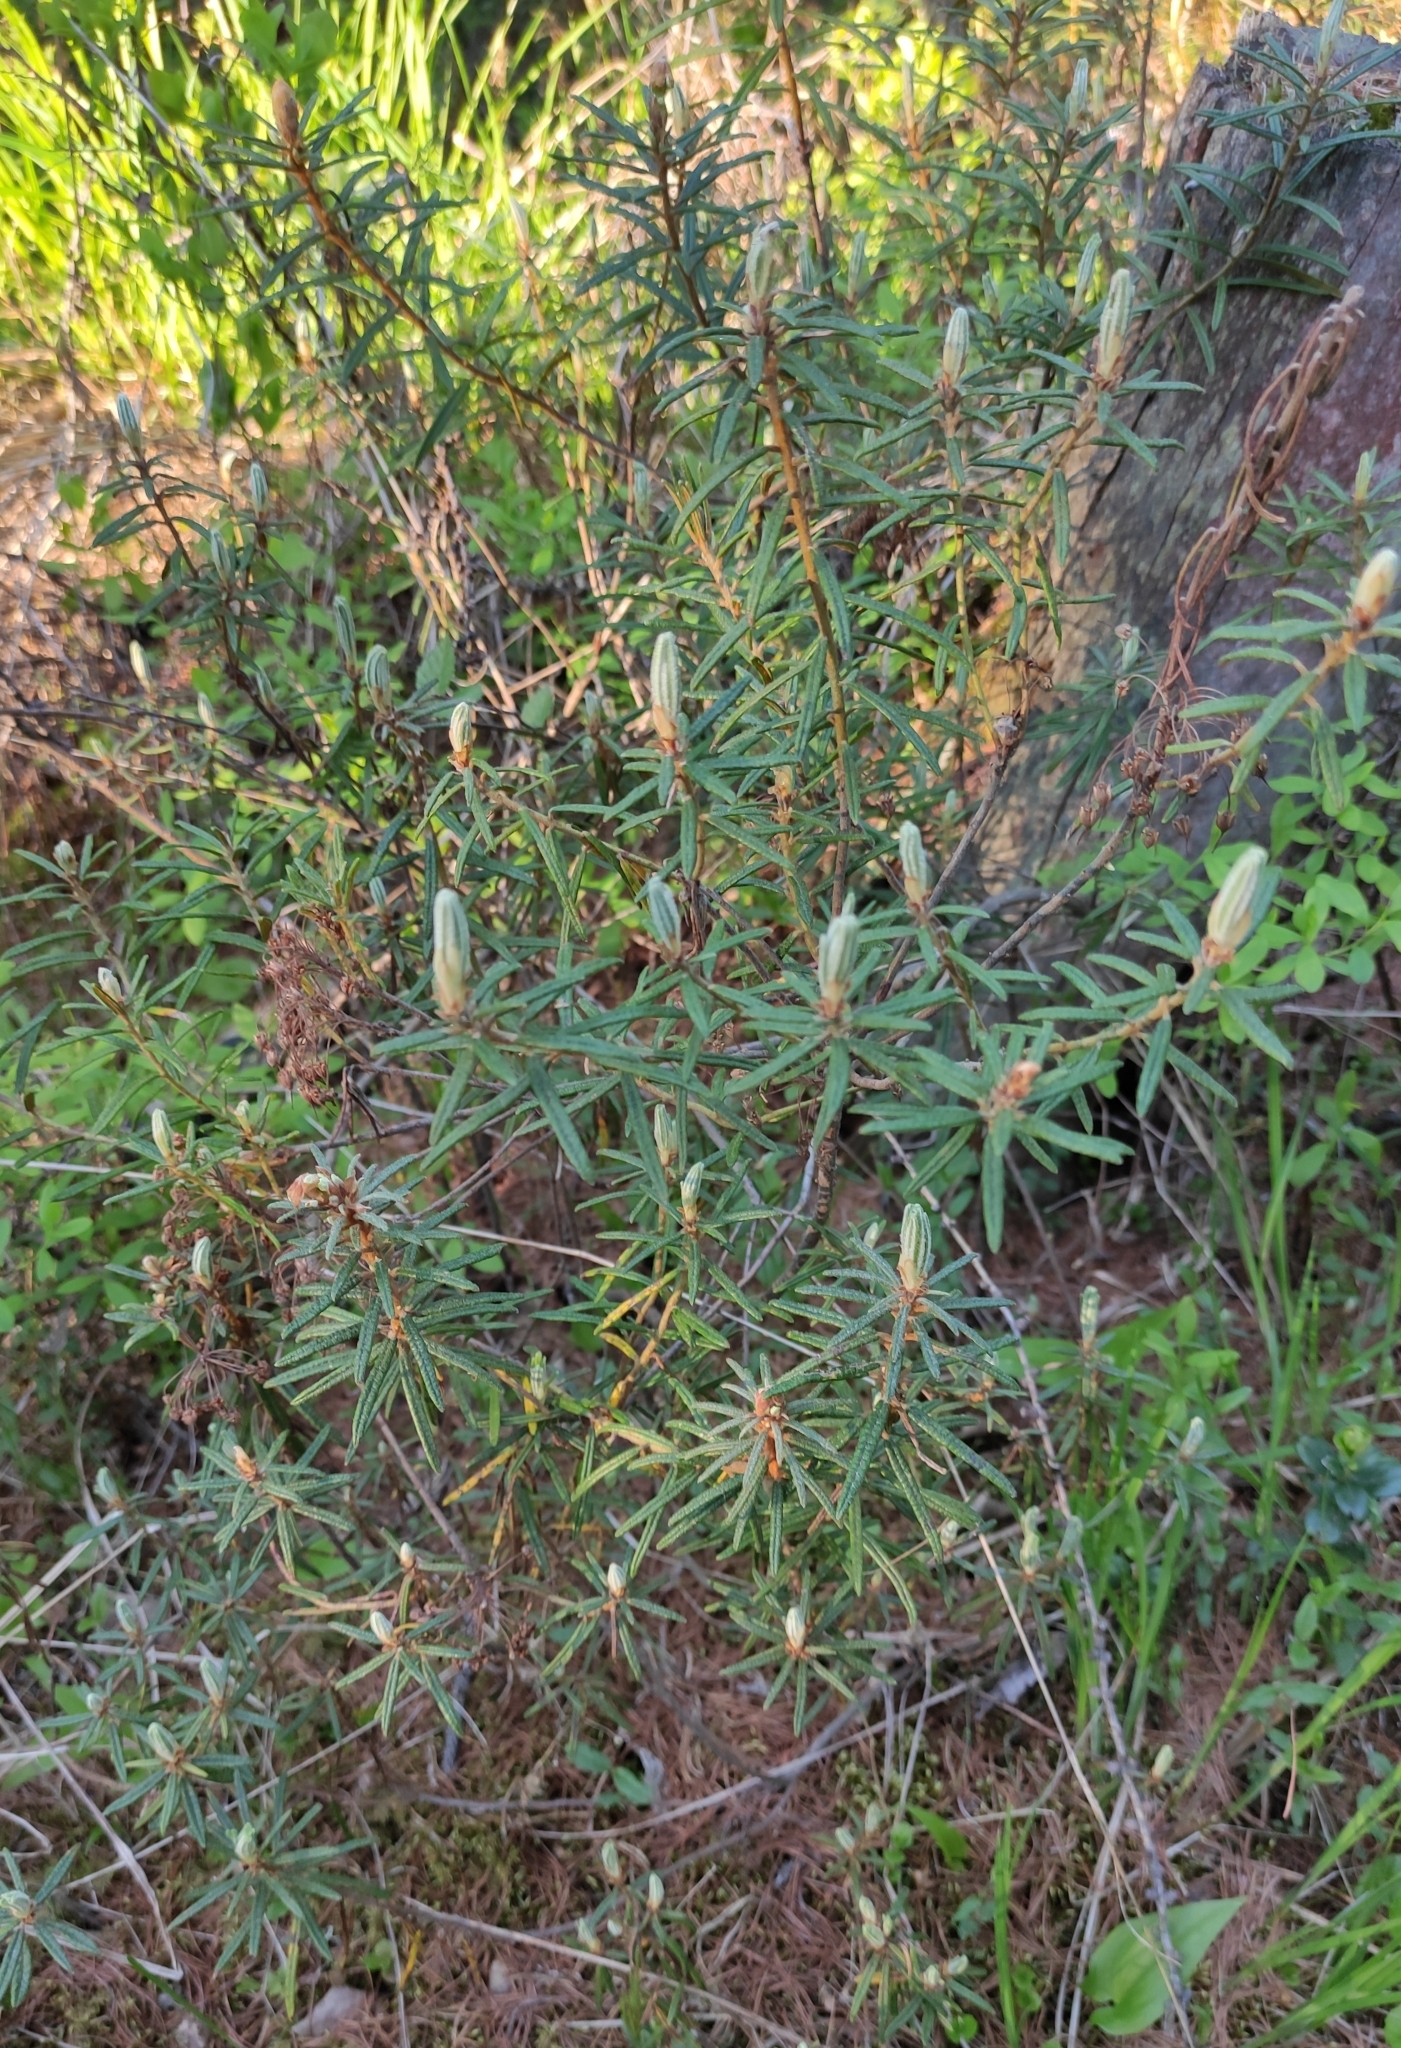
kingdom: Plantae
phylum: Tracheophyta
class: Magnoliopsida
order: Ericales
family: Ericaceae
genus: Rhododendron
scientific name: Rhododendron tomentosum
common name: Marsh labrador tea
